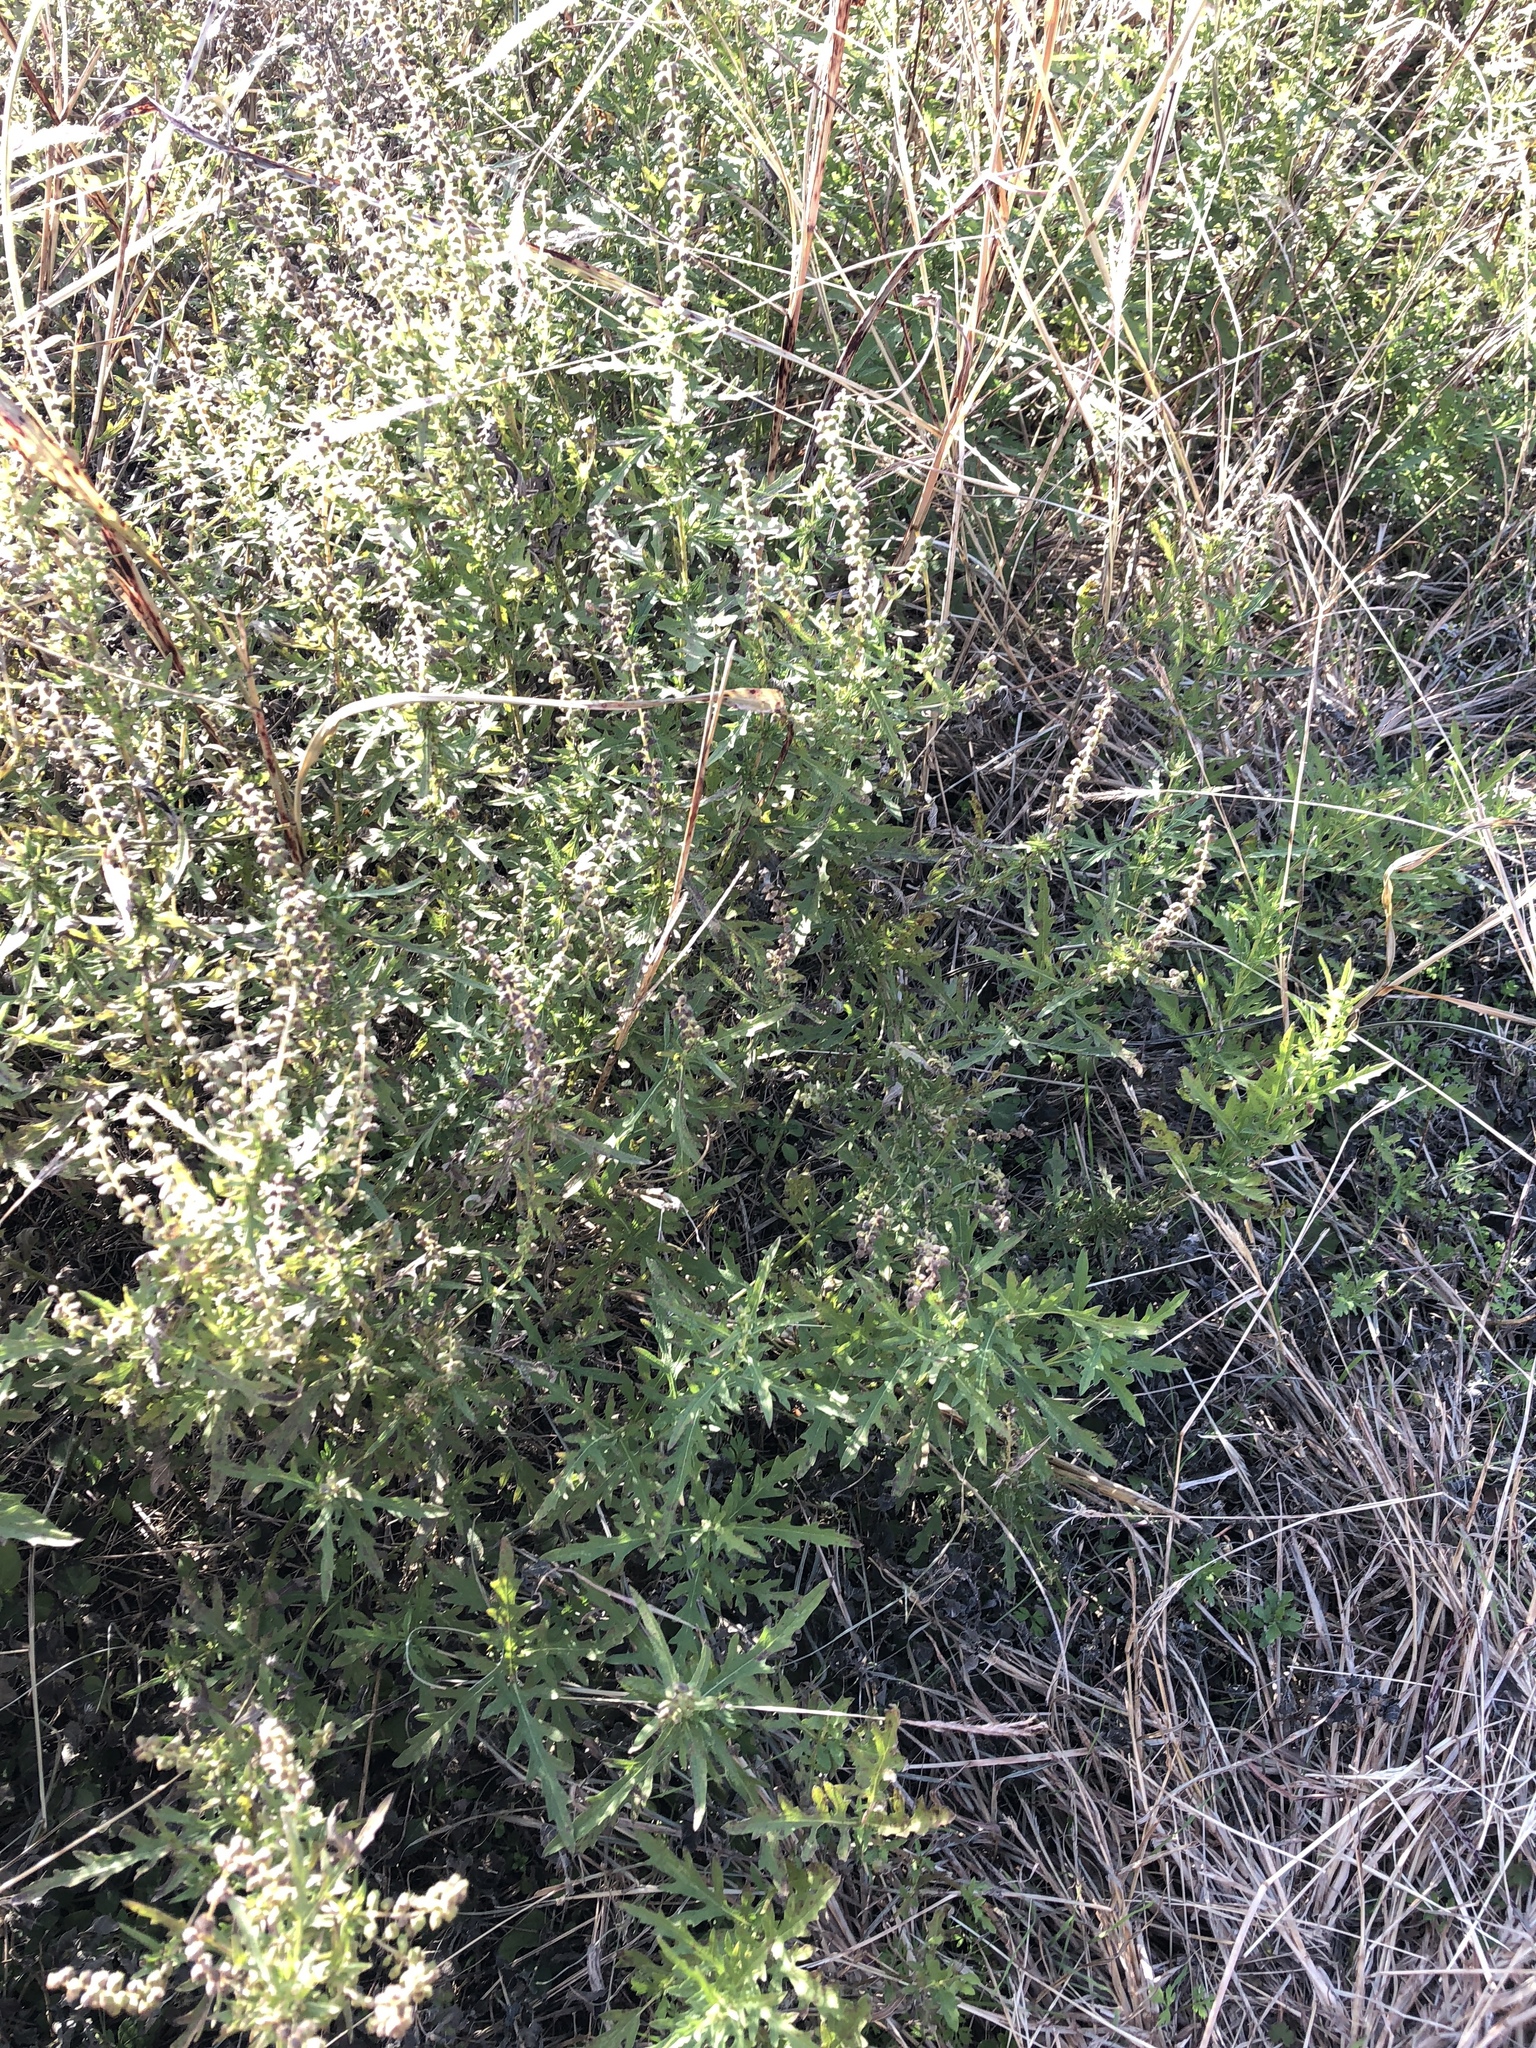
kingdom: Plantae
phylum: Tracheophyta
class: Magnoliopsida
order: Asterales
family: Asteraceae
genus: Ambrosia
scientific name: Ambrosia psilostachya
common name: Perennial ragweed
